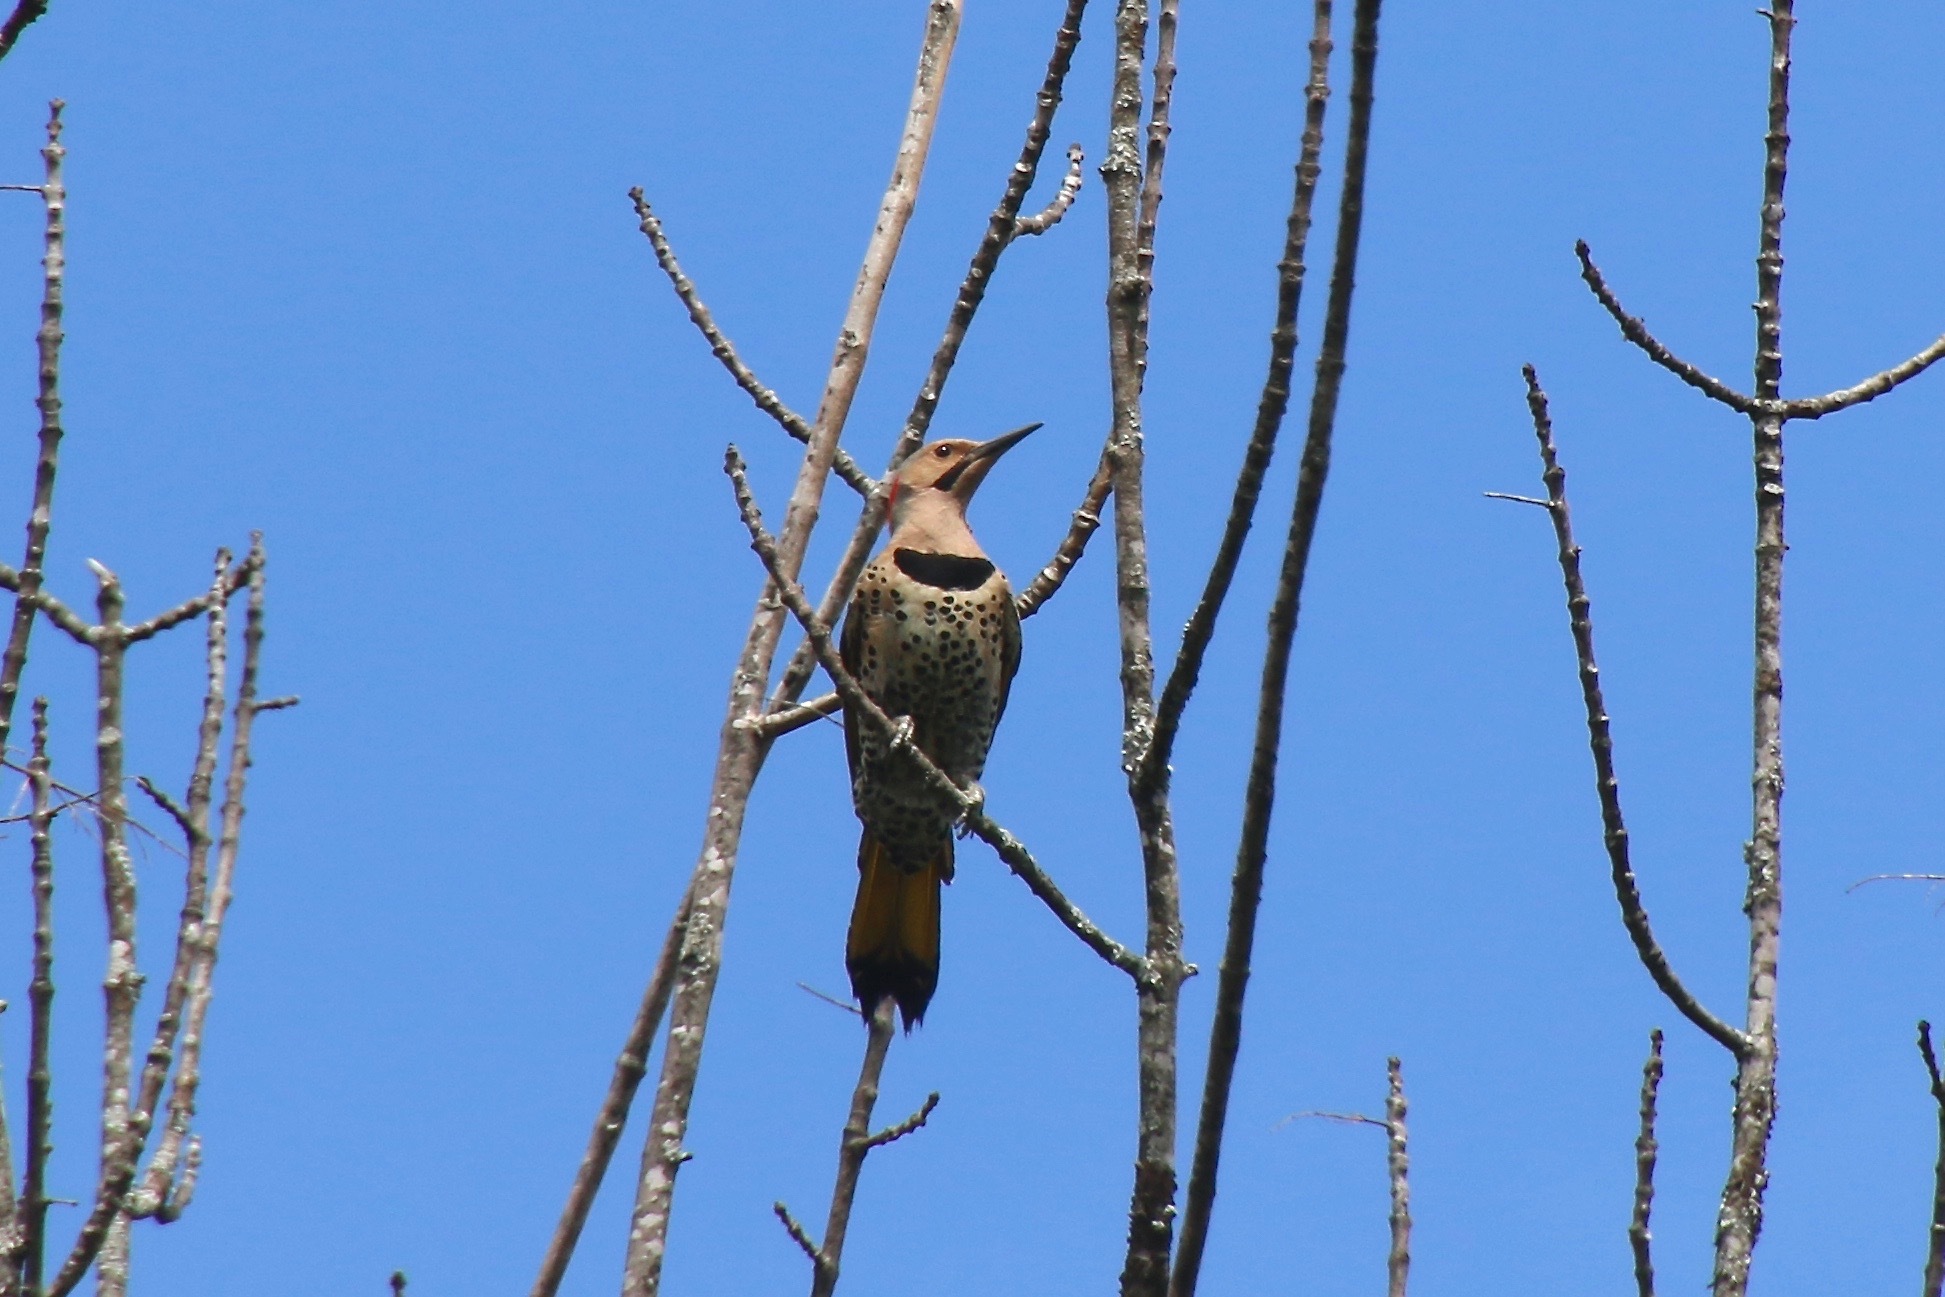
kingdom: Animalia
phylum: Chordata
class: Aves
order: Piciformes
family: Picidae
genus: Colaptes
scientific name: Colaptes auratus
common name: Northern flicker
